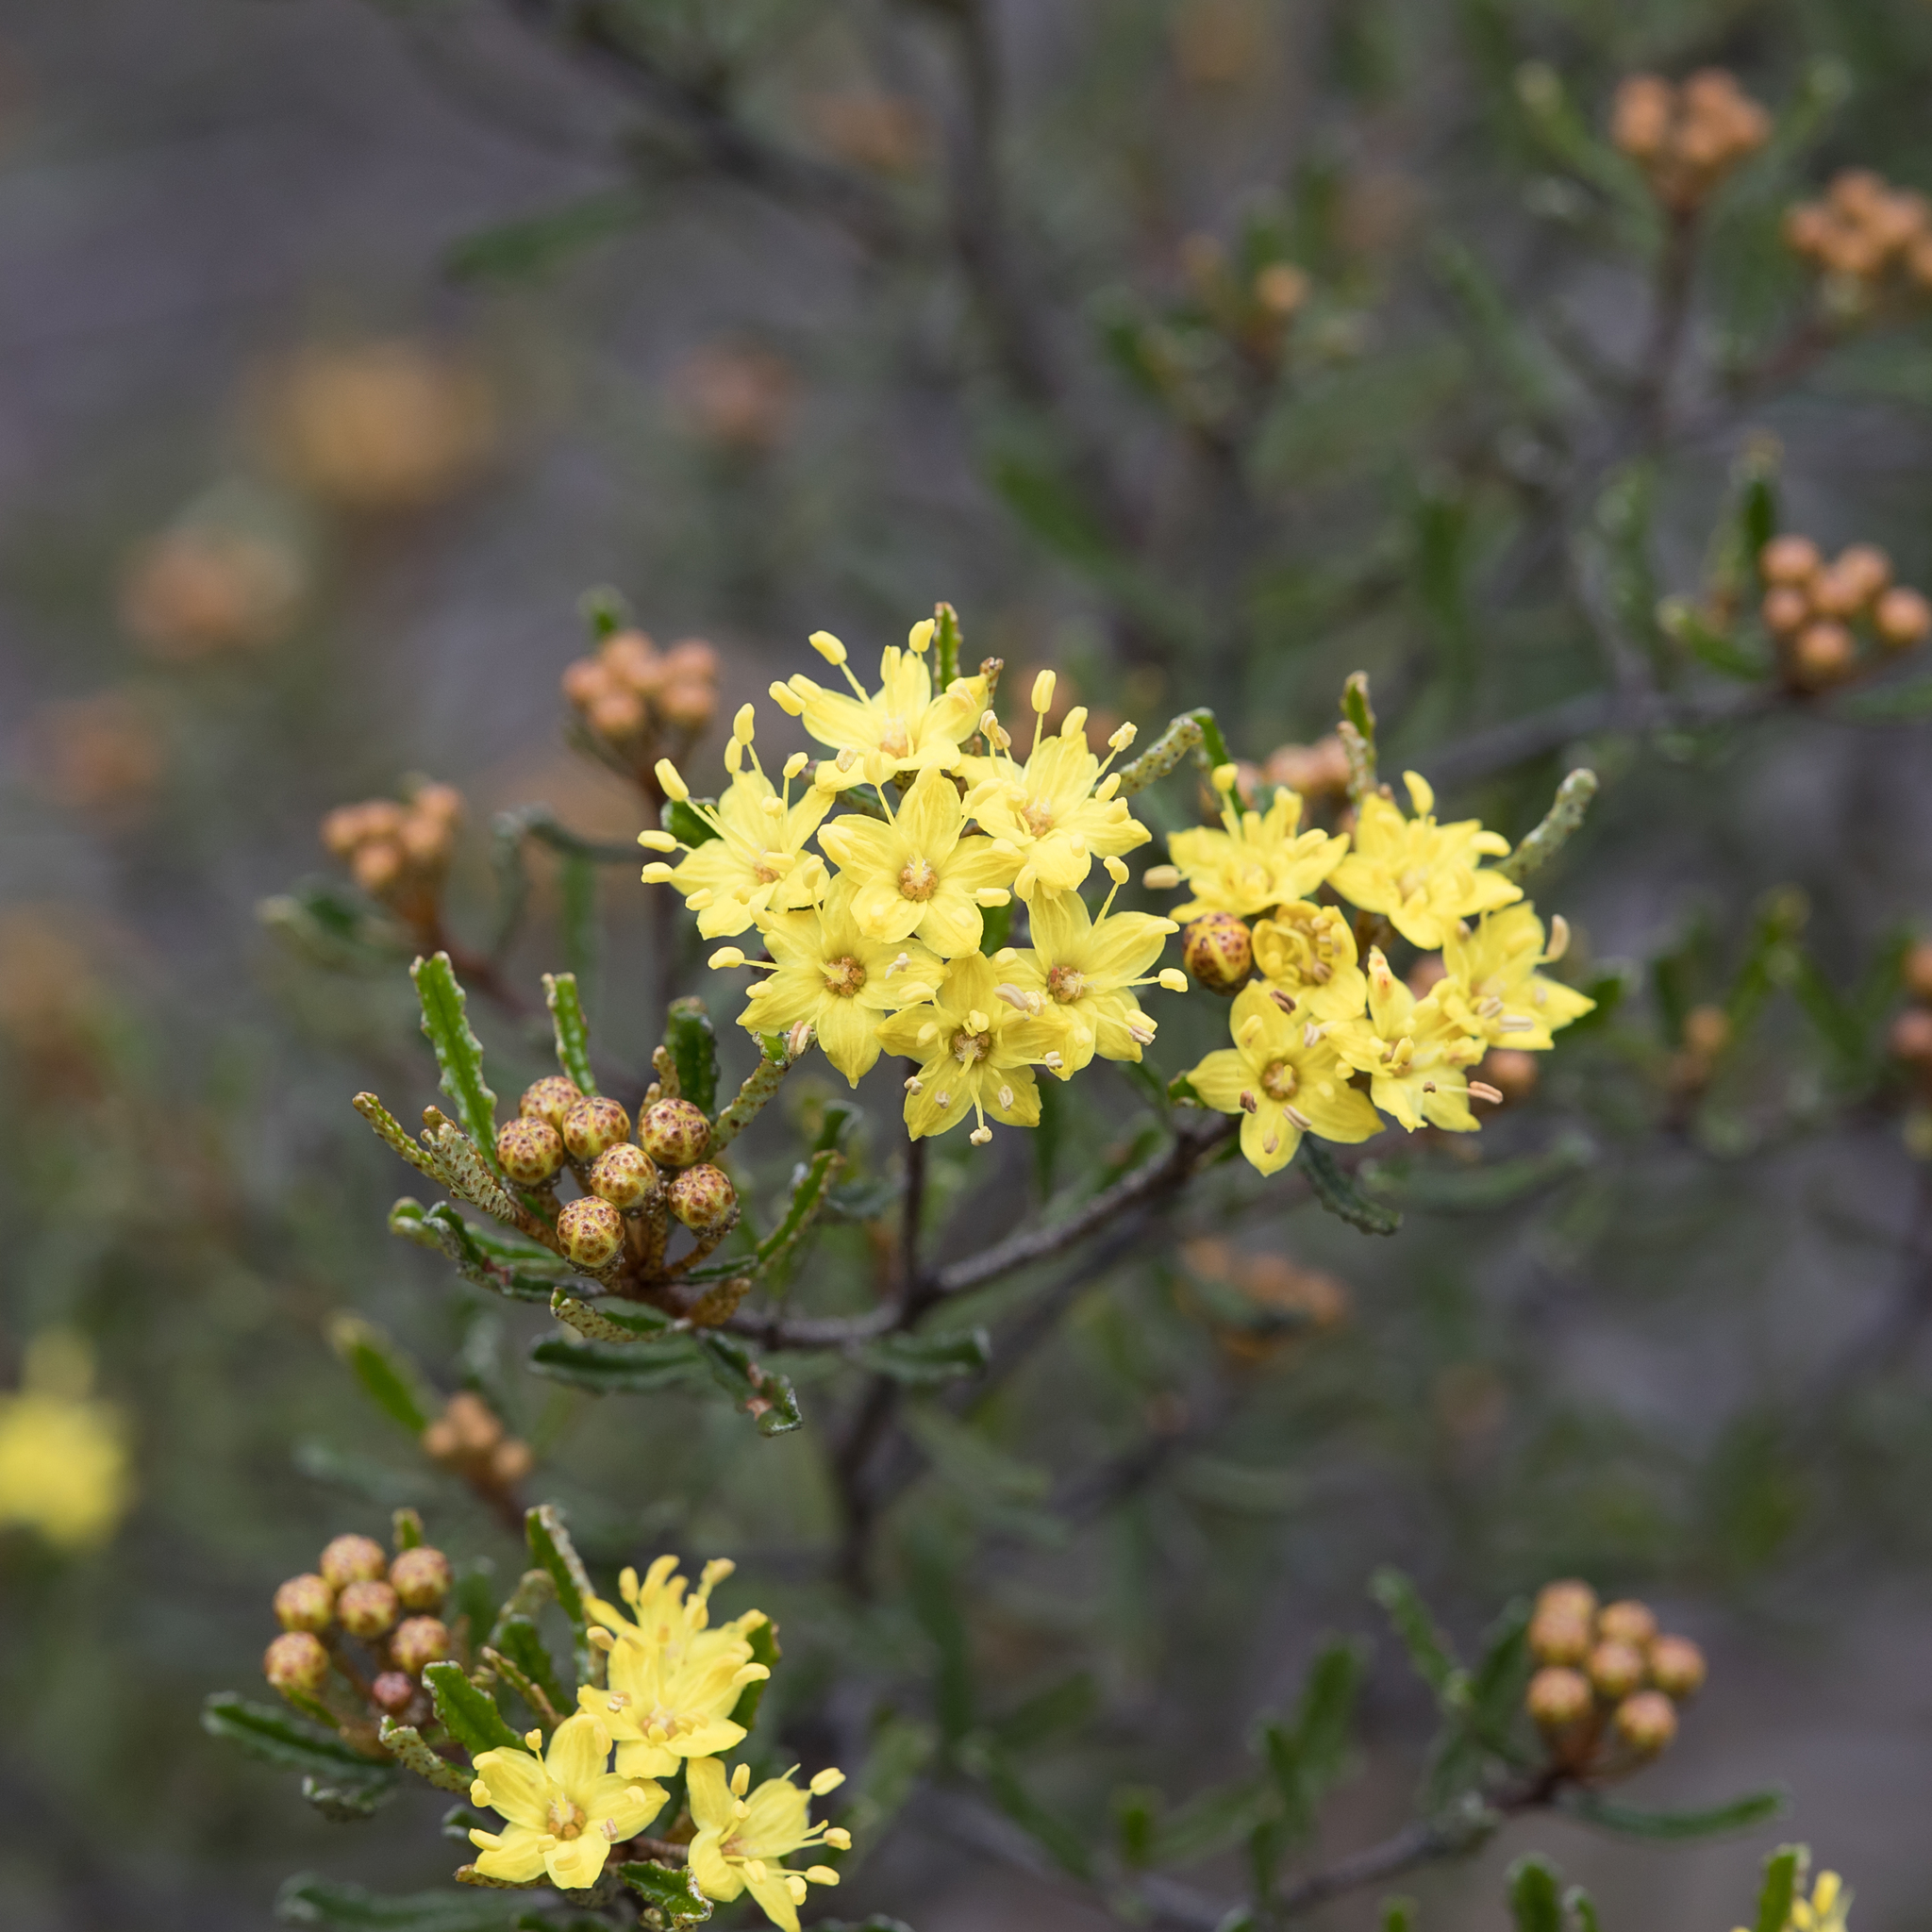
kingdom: Plantae
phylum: Tracheophyta
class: Magnoliopsida
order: Sapindales
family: Rutaceae
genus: Phebalium
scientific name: Phebalium bullatum
